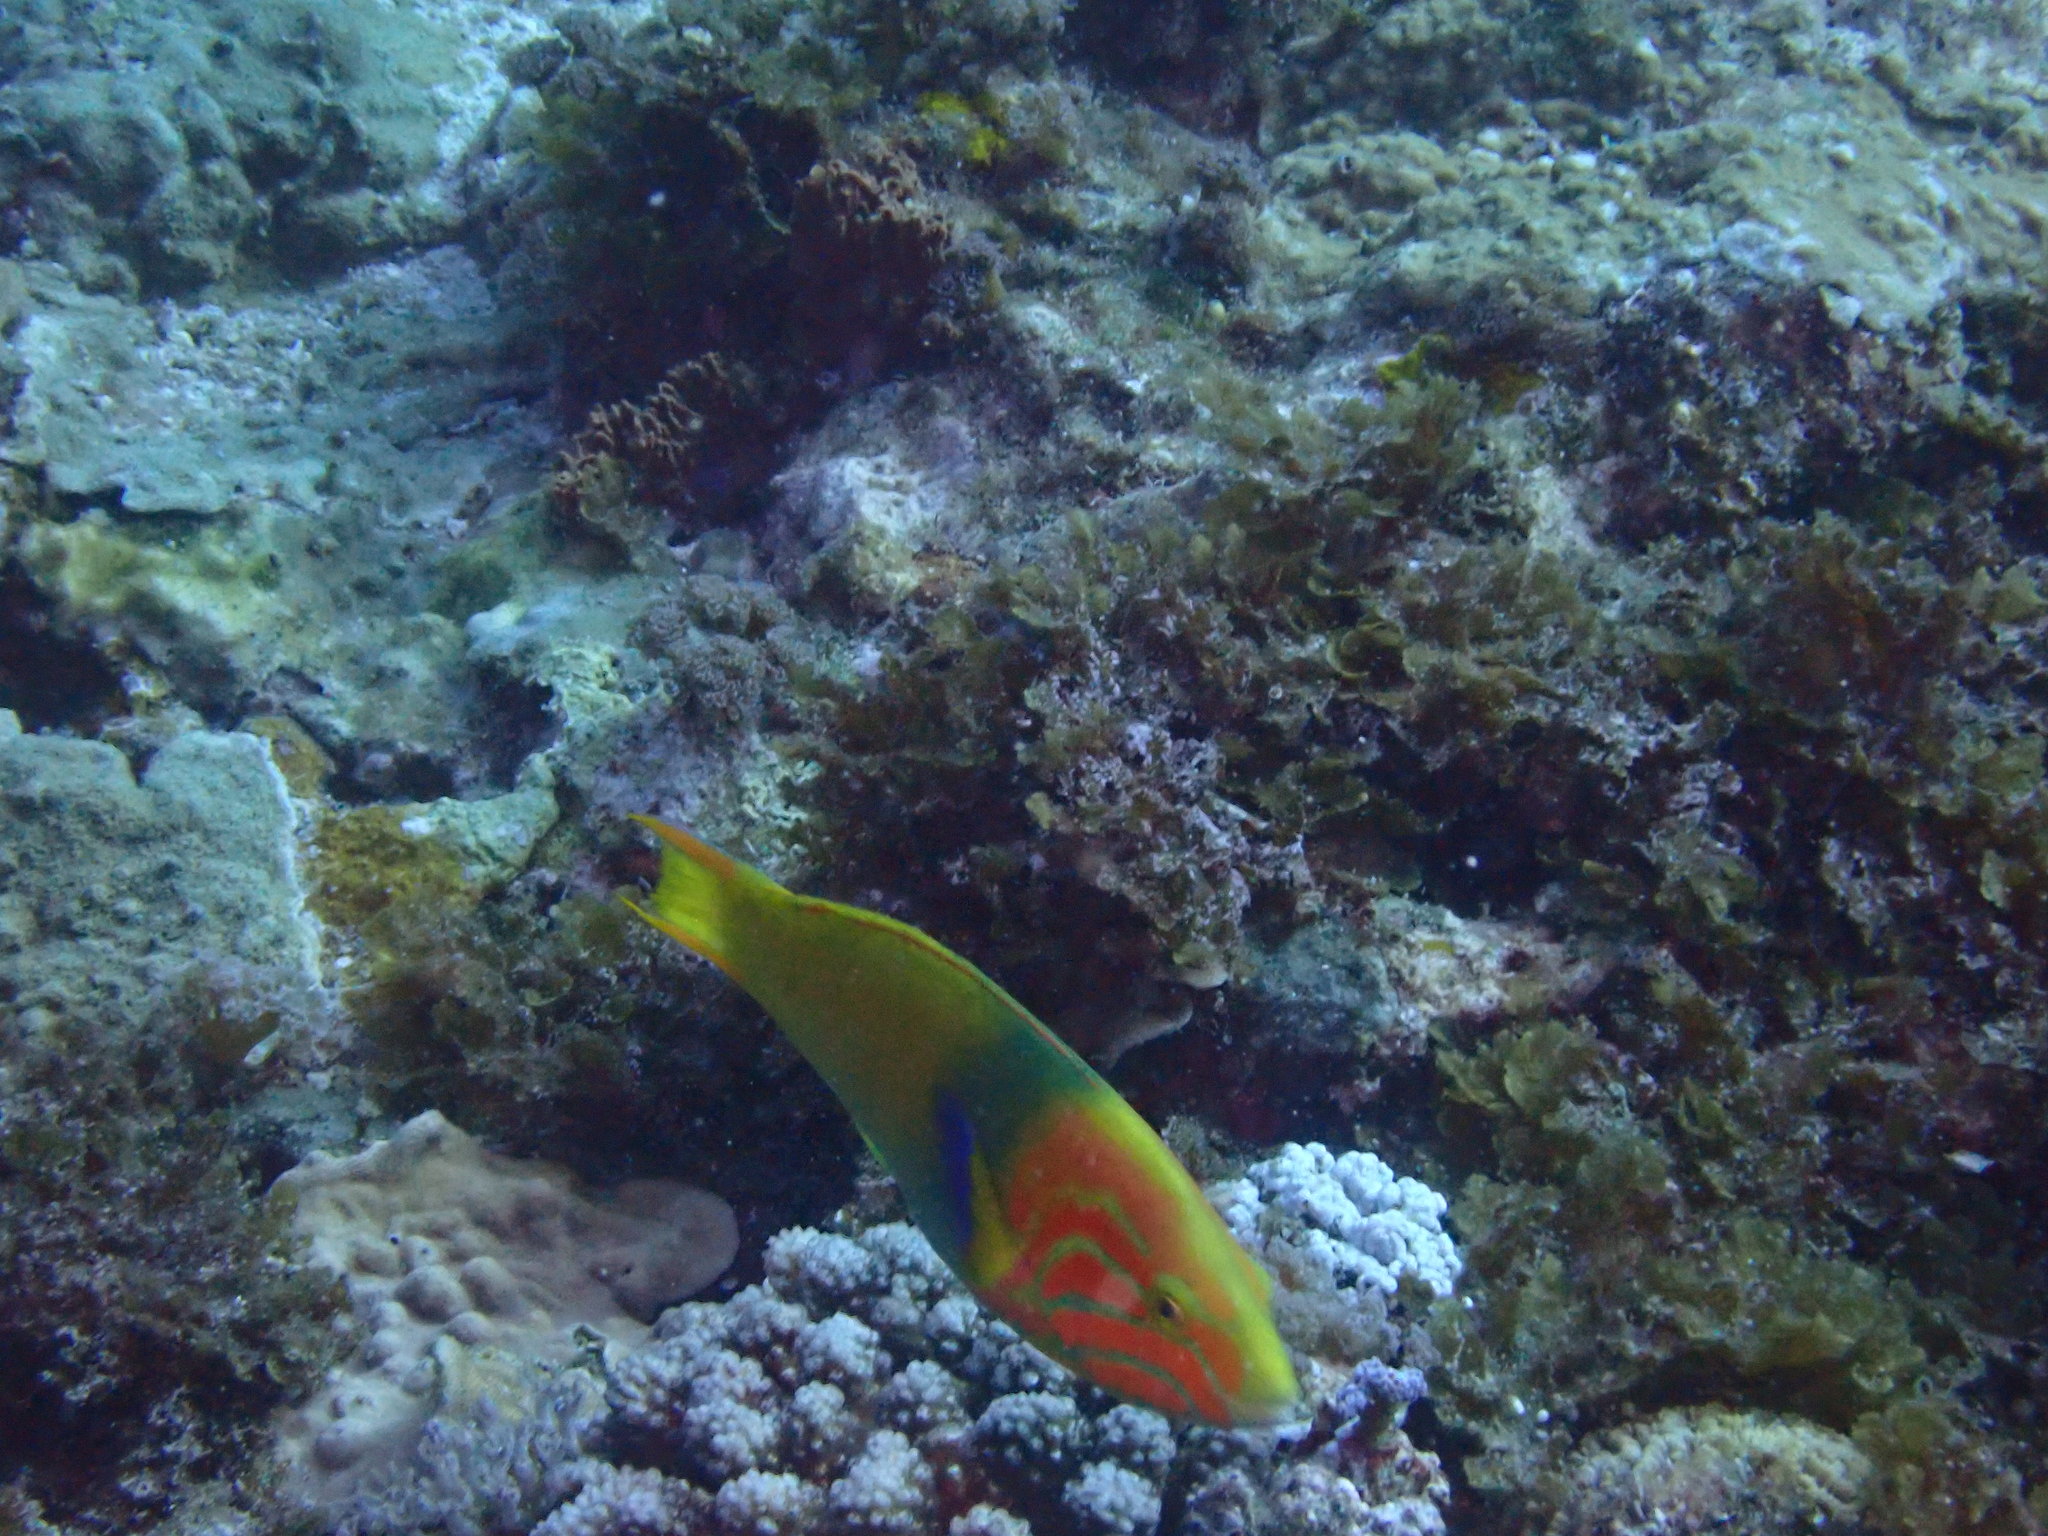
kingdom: Animalia
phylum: Chordata
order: Perciformes
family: Labridae
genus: Thalassoma
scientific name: Thalassoma lutescens
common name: Green moon wrasse
